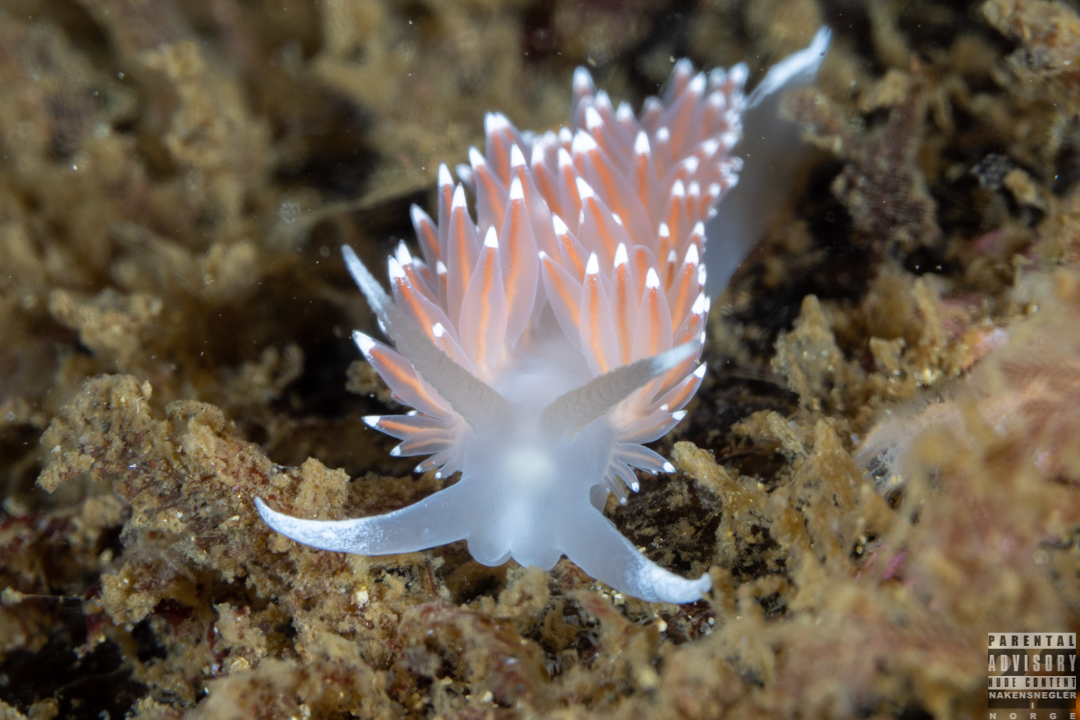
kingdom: Animalia
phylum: Mollusca
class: Gastropoda
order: Nudibranchia
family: Coryphellidae
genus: Coryphella
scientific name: Coryphella nobilis
